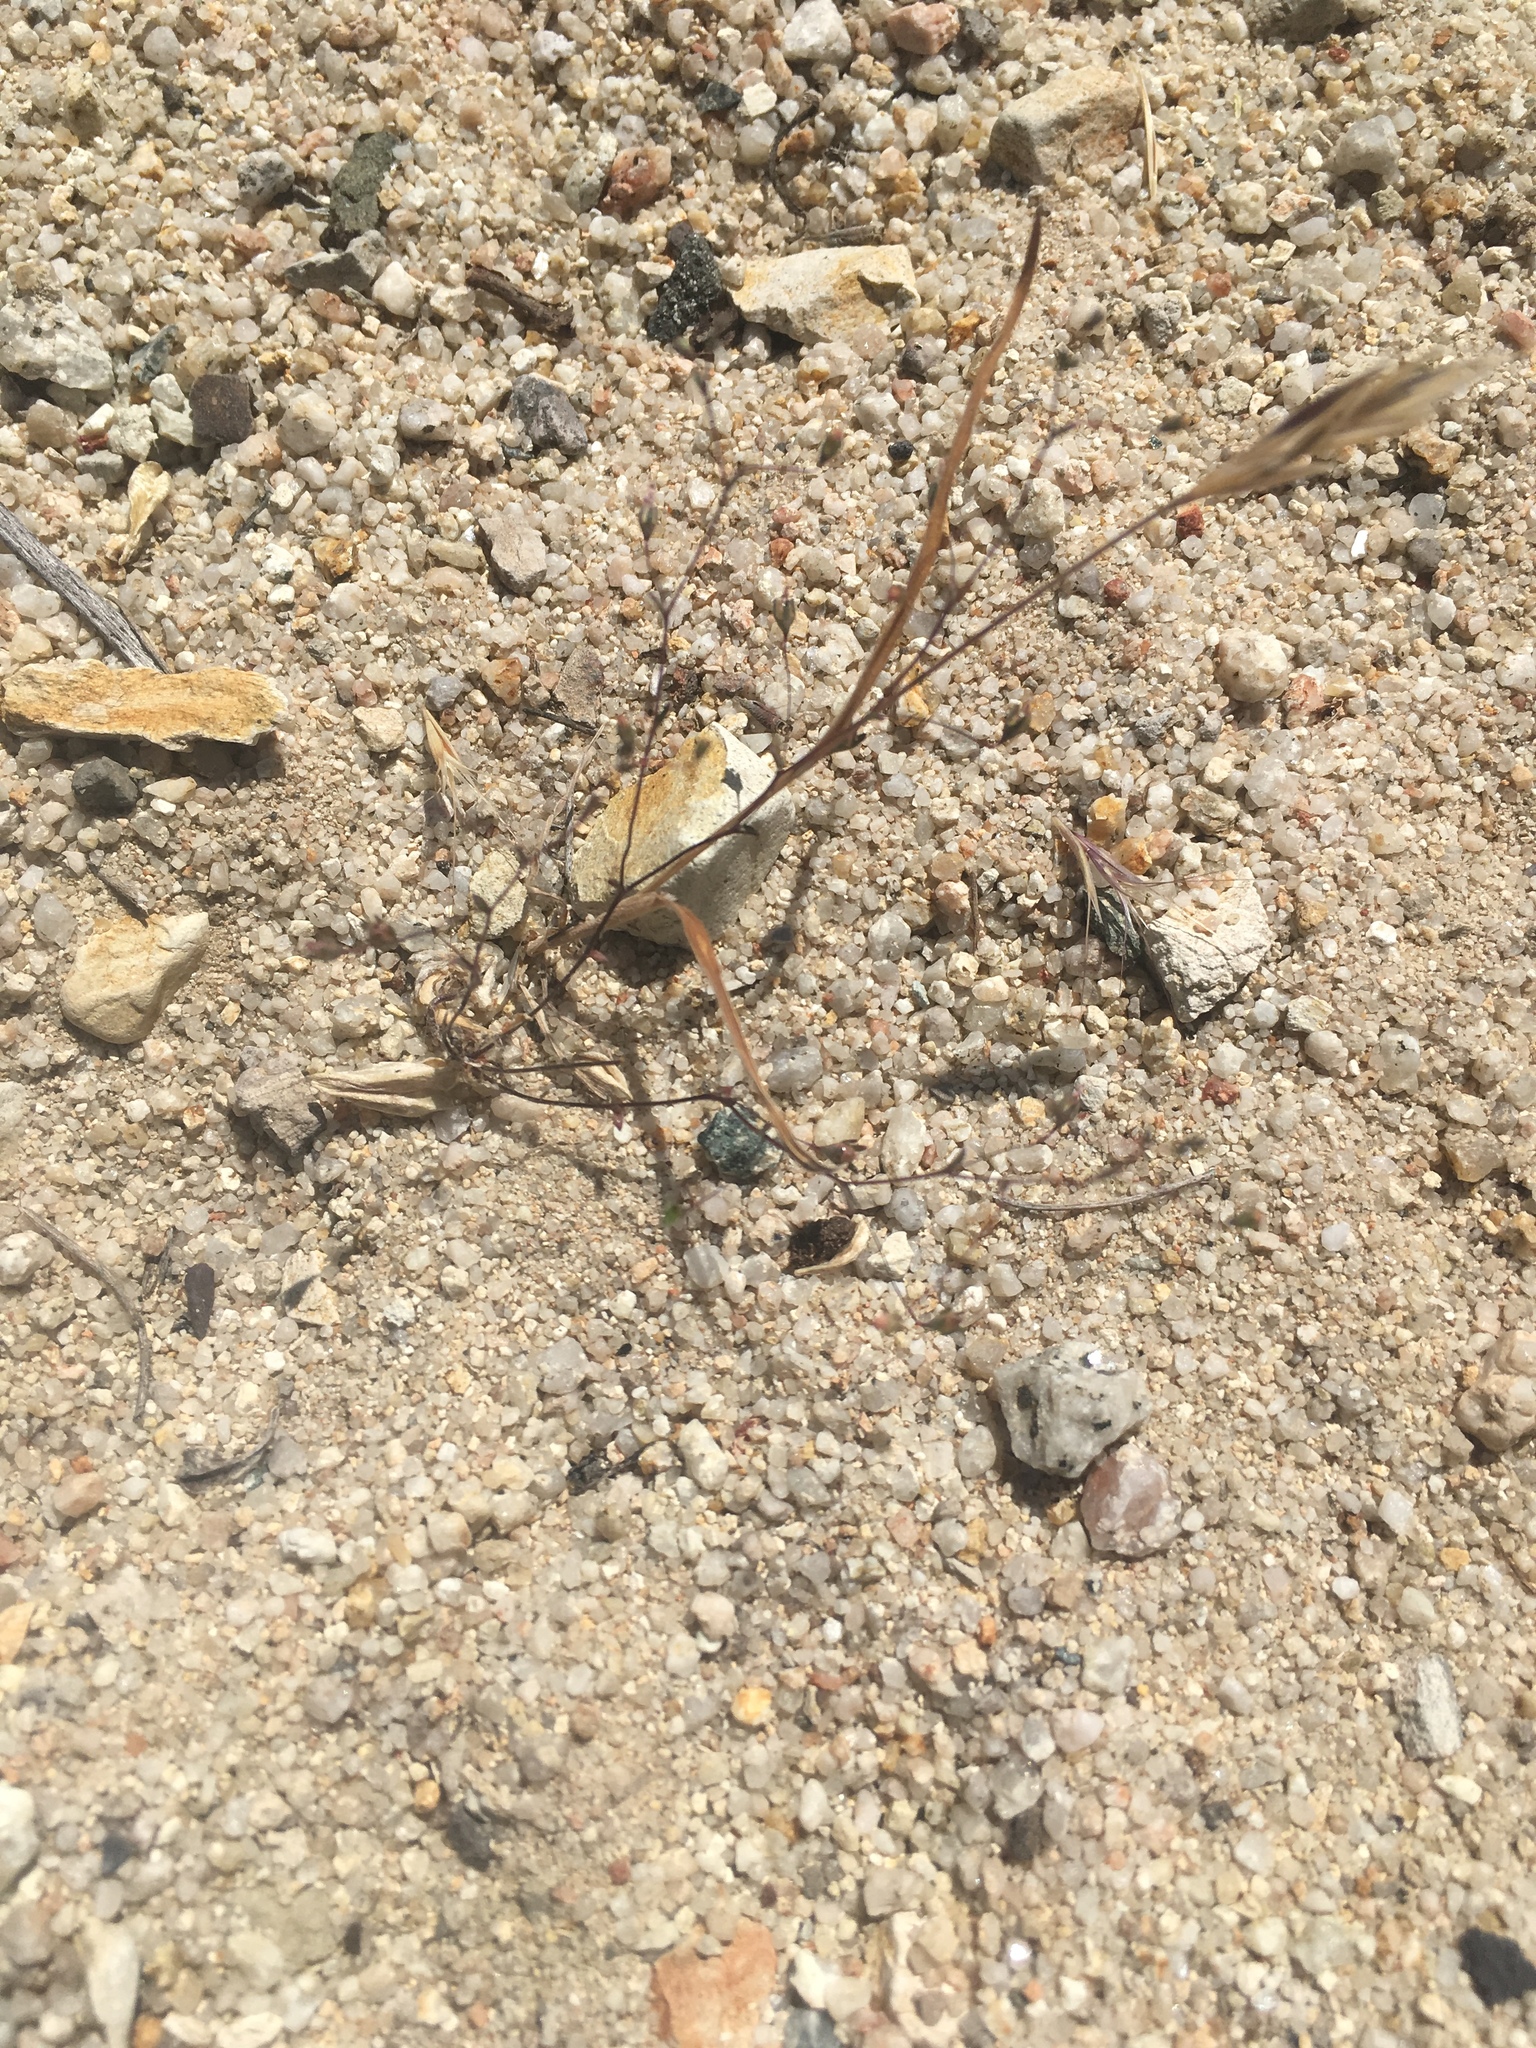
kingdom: Plantae
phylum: Tracheophyta
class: Magnoliopsida
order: Asterales
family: Campanulaceae
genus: Nemacladus
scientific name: Nemacladus secundiflorus
